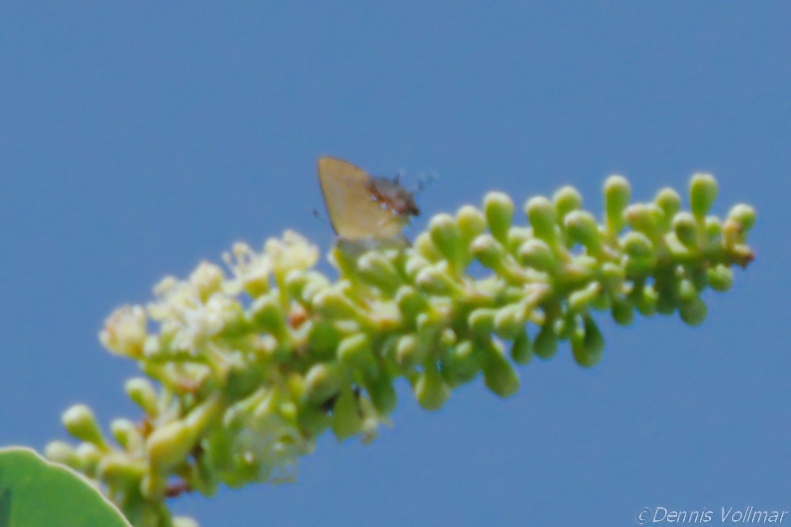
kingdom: Animalia
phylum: Arthropoda
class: Insecta
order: Lepidoptera
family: Lycaenidae
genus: Thecla
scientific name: Thecla maesites
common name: Verde azul hairstreak
